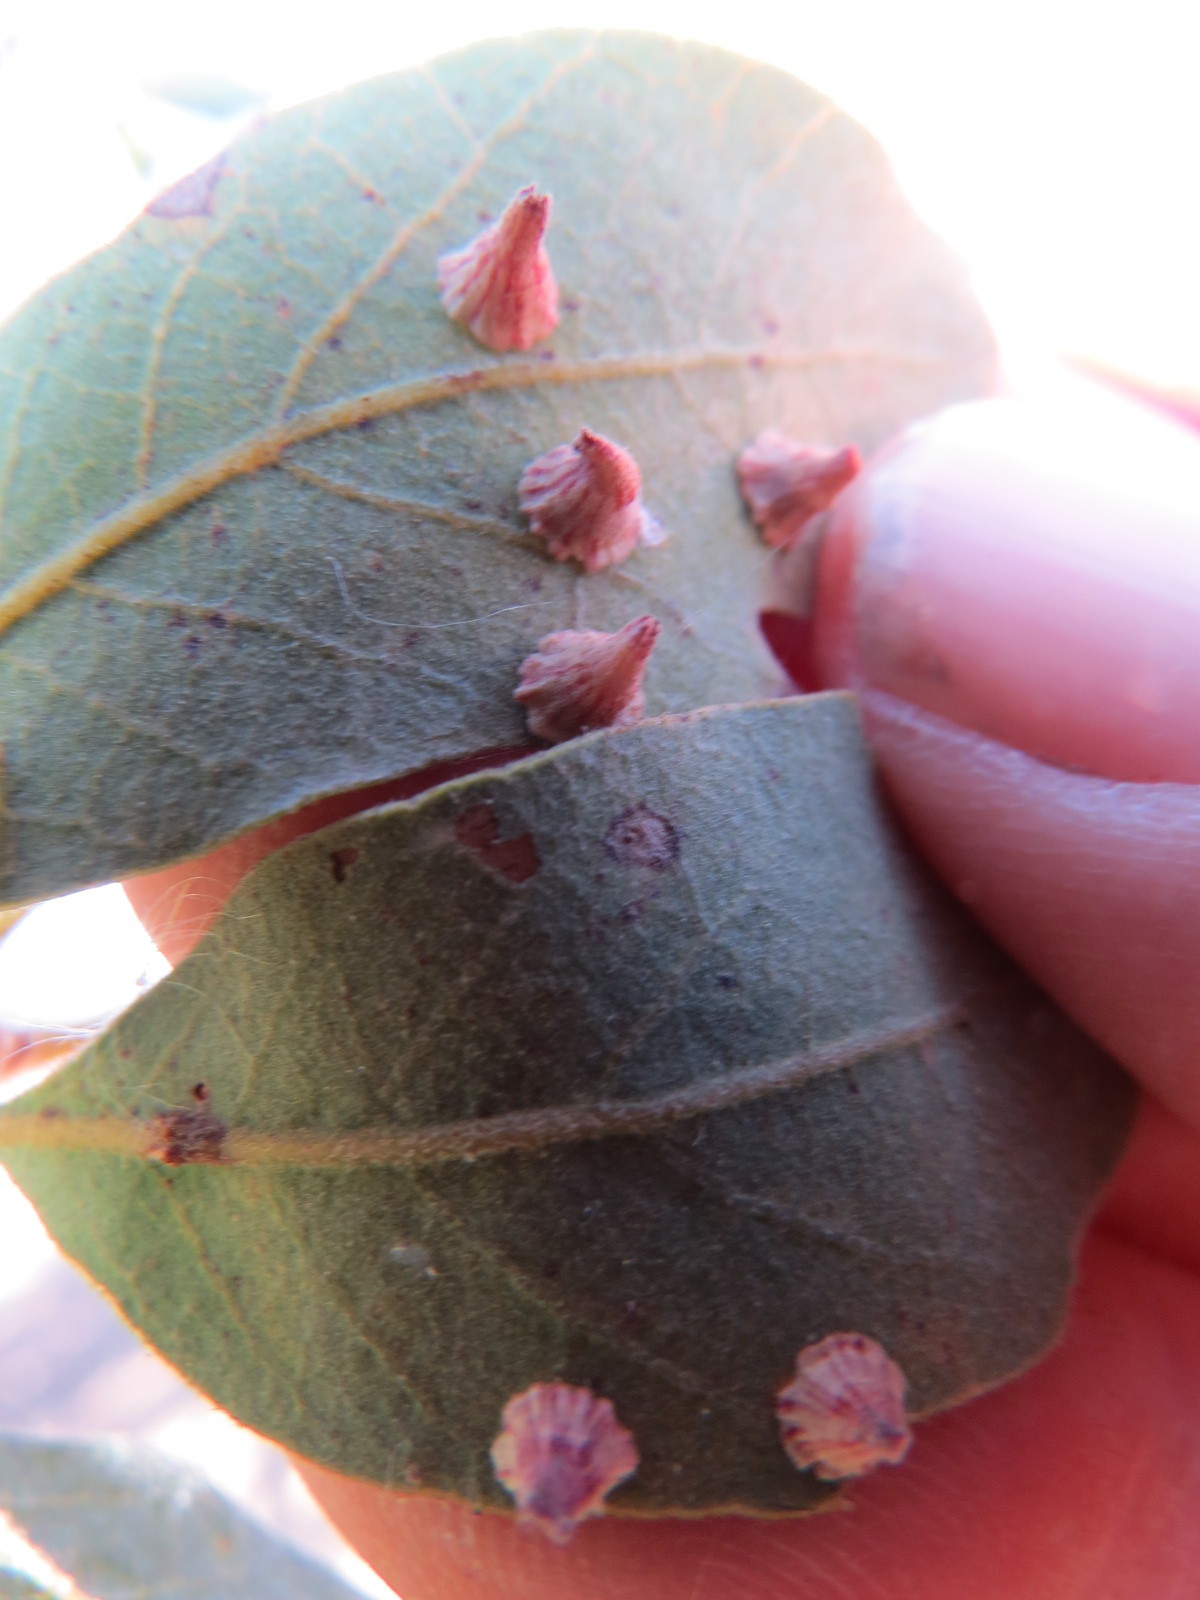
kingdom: Animalia
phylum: Arthropoda
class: Insecta
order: Hymenoptera
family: Cynipidae
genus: Andricus
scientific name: Andricus
